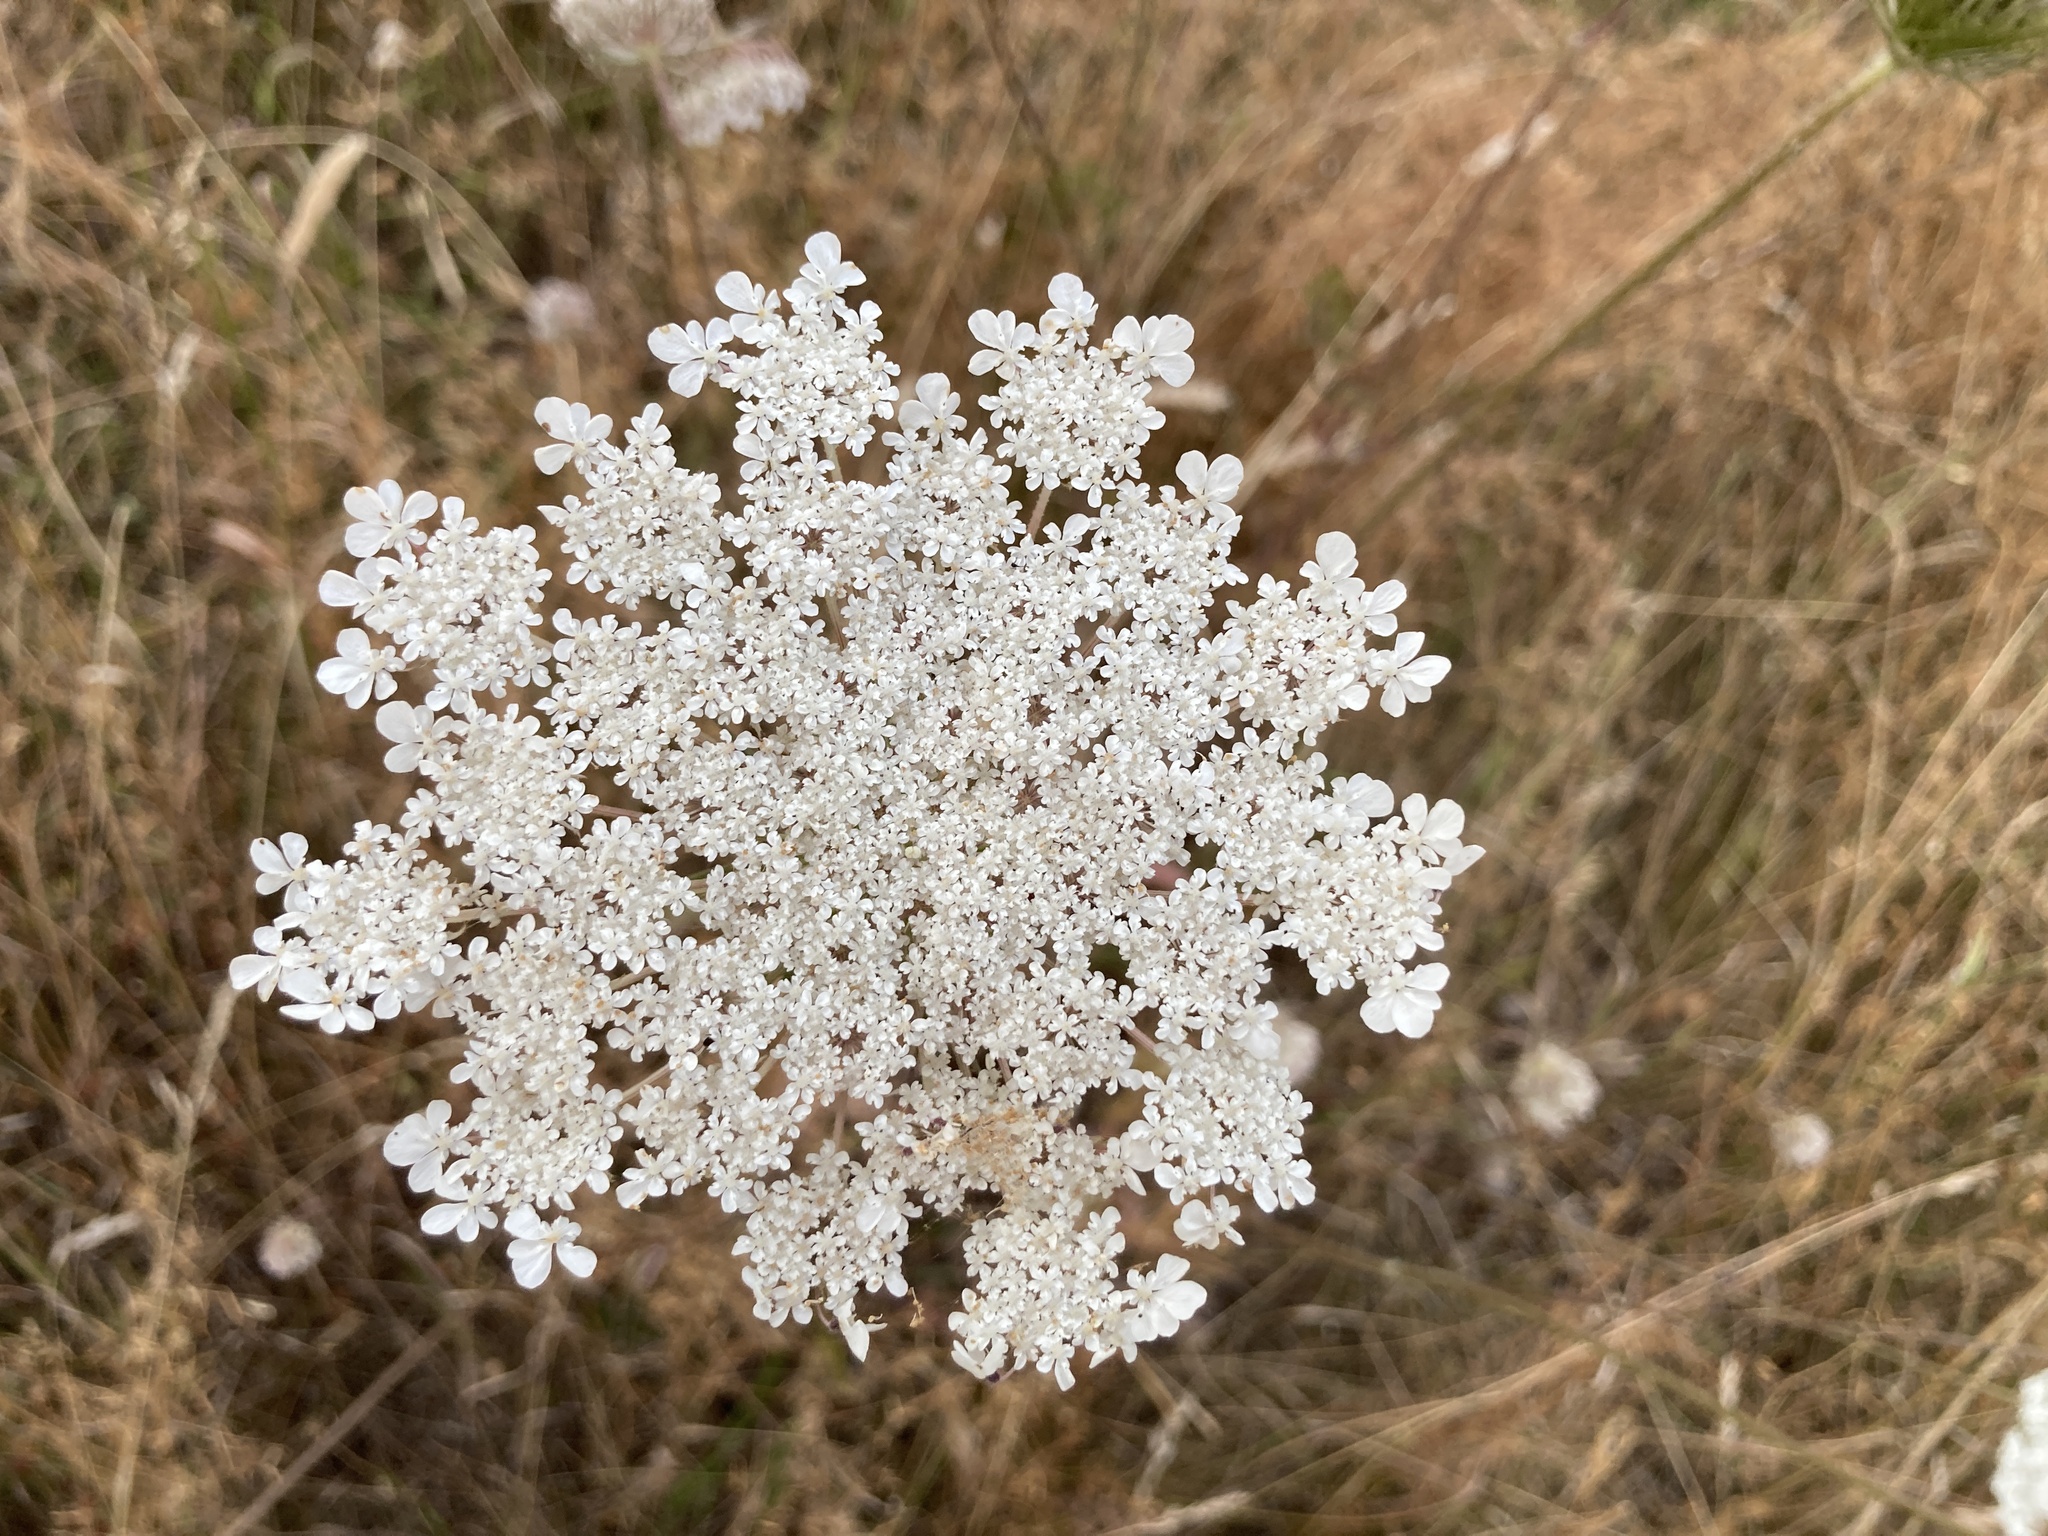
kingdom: Plantae
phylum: Tracheophyta
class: Magnoliopsida
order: Apiales
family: Apiaceae
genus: Daucus
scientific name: Daucus carota
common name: Wild carrot
